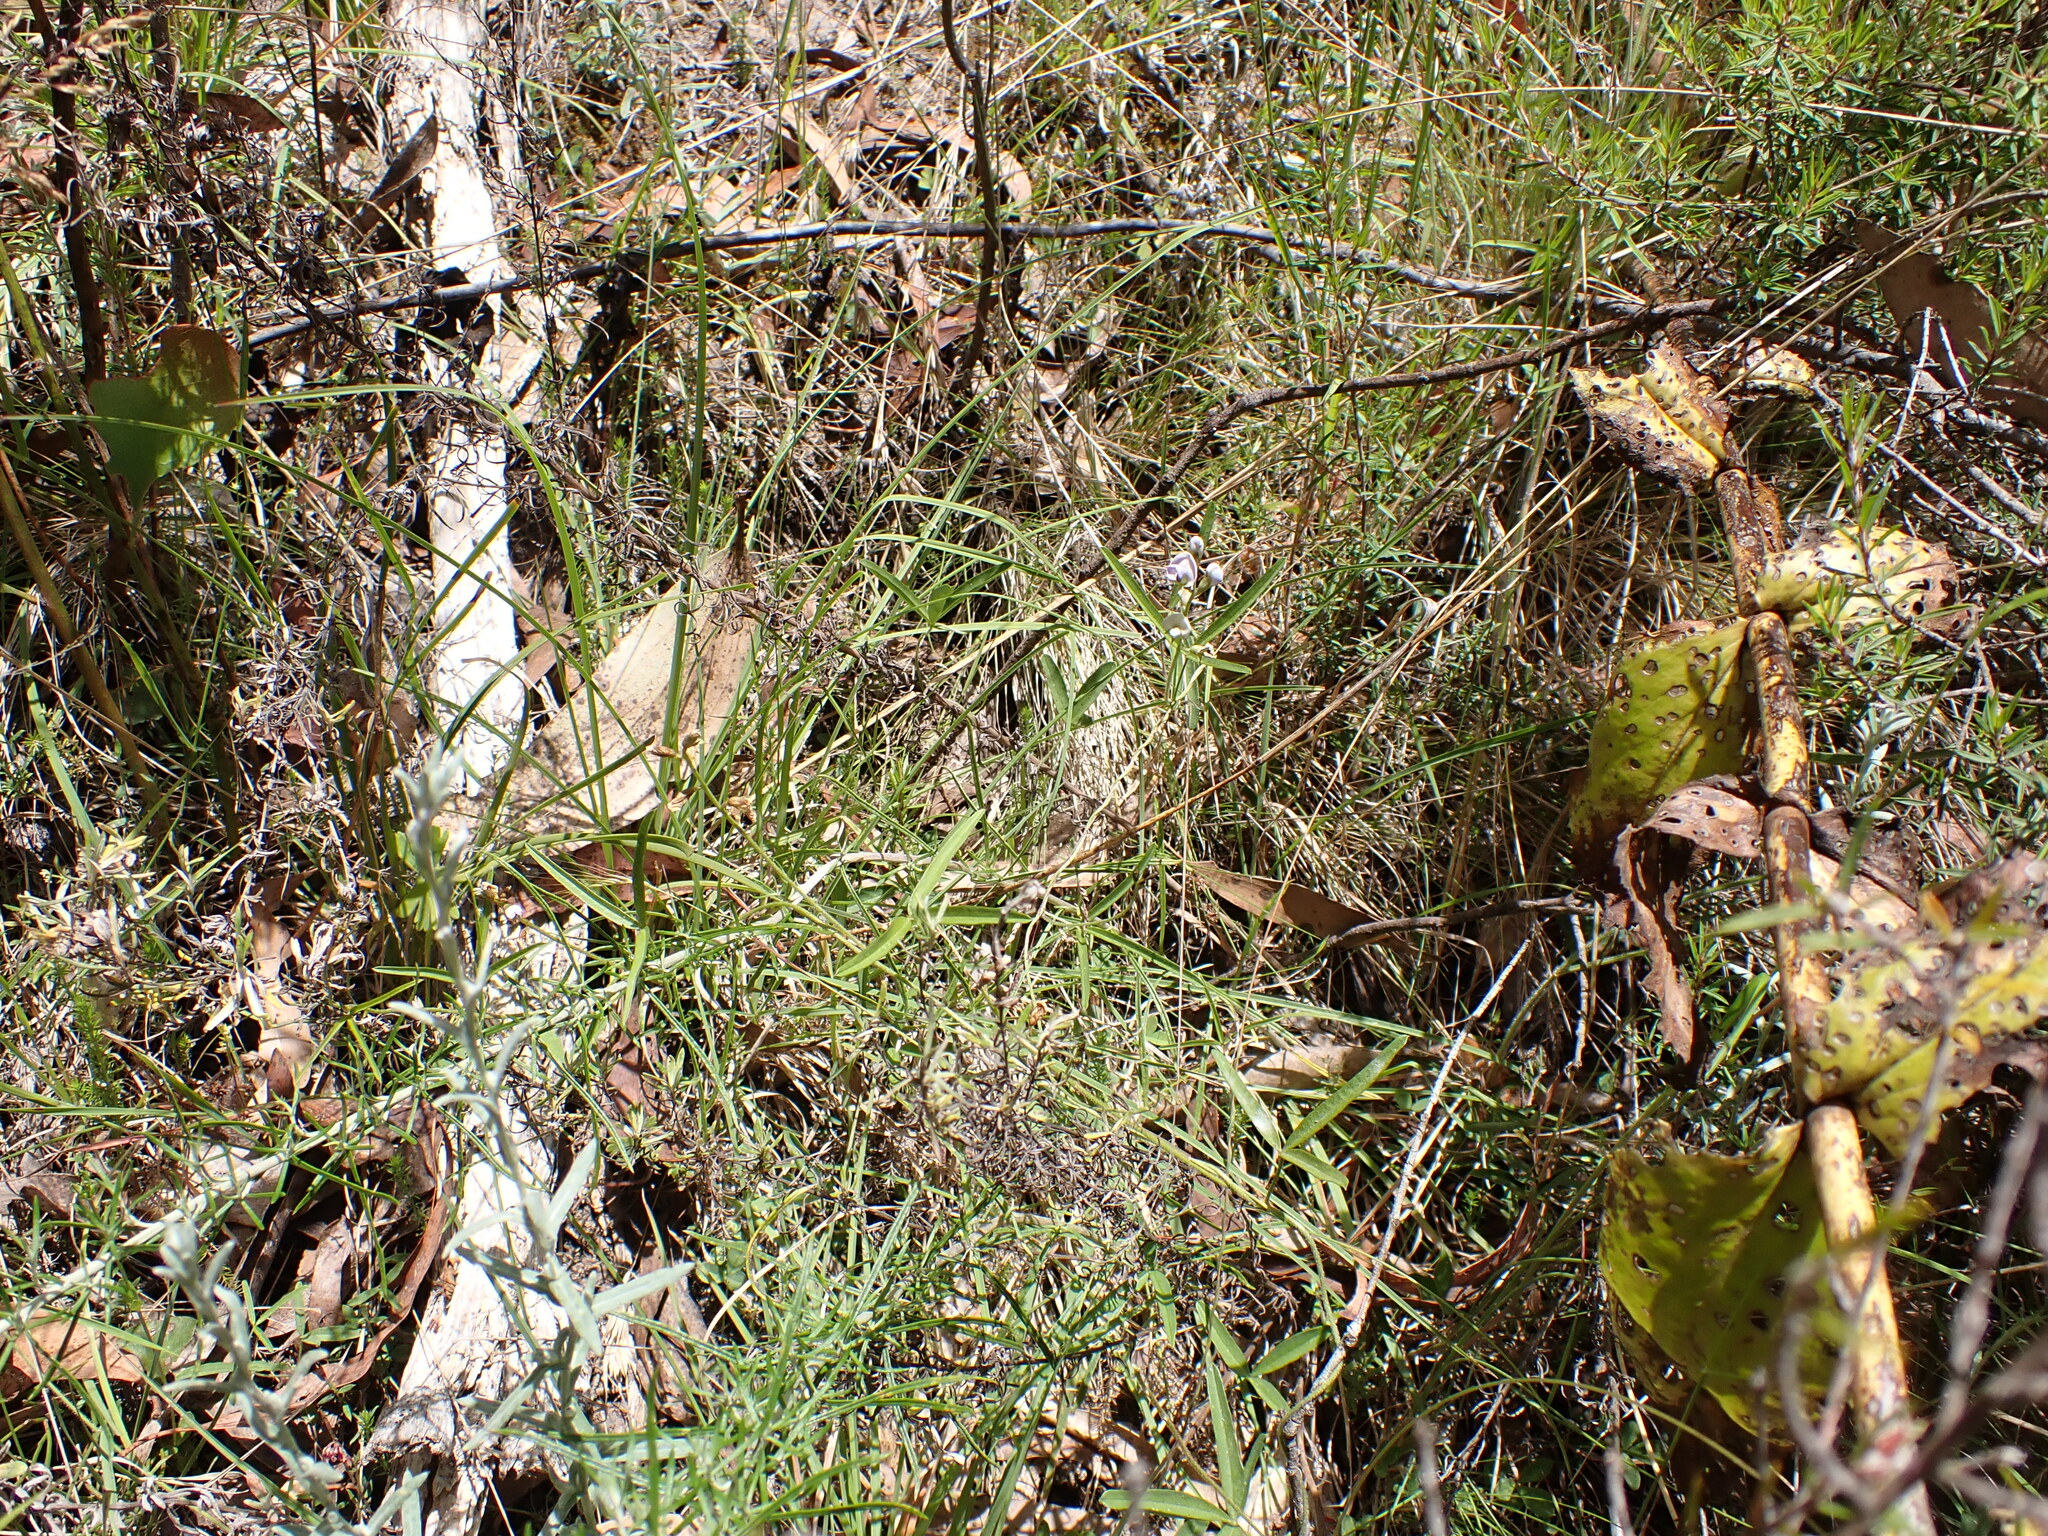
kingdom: Plantae
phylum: Tracheophyta
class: Magnoliopsida
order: Fabales
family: Fabaceae
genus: Glycine
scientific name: Glycine clandestina
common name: Twining glycine
